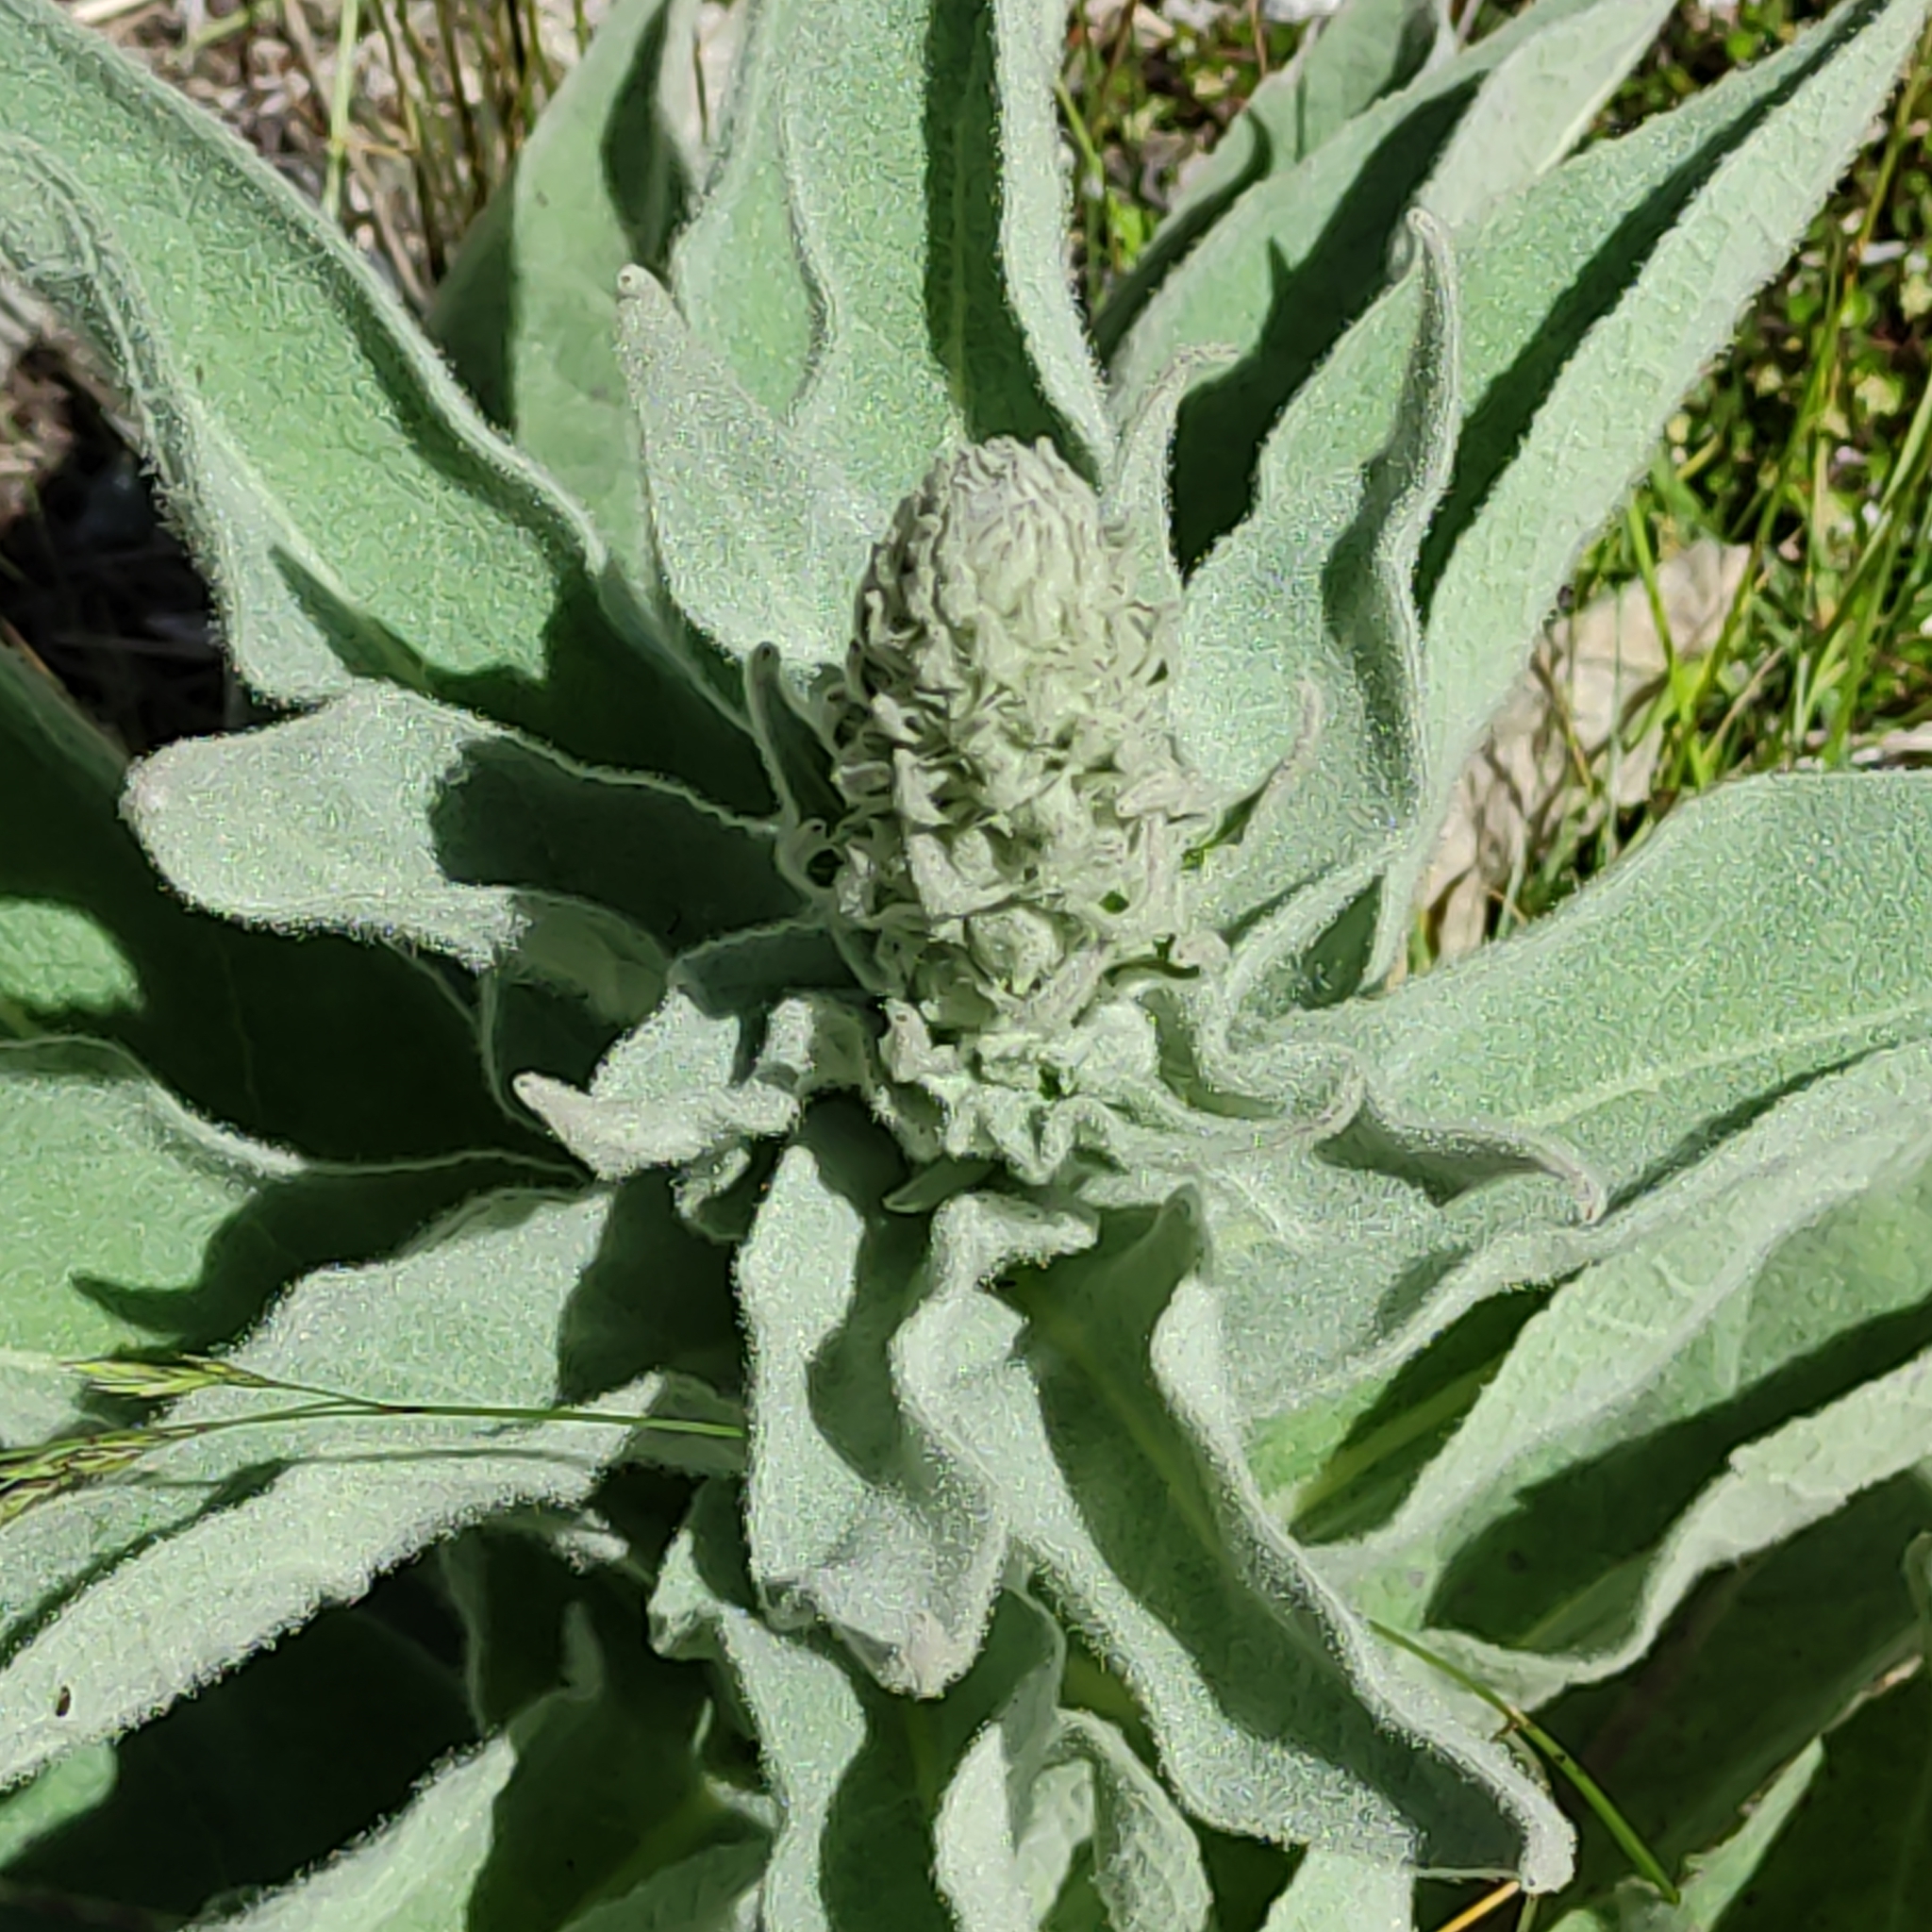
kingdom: Plantae
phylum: Tracheophyta
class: Magnoliopsida
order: Lamiales
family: Scrophulariaceae
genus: Verbascum
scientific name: Verbascum thapsus
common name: Common mullein
